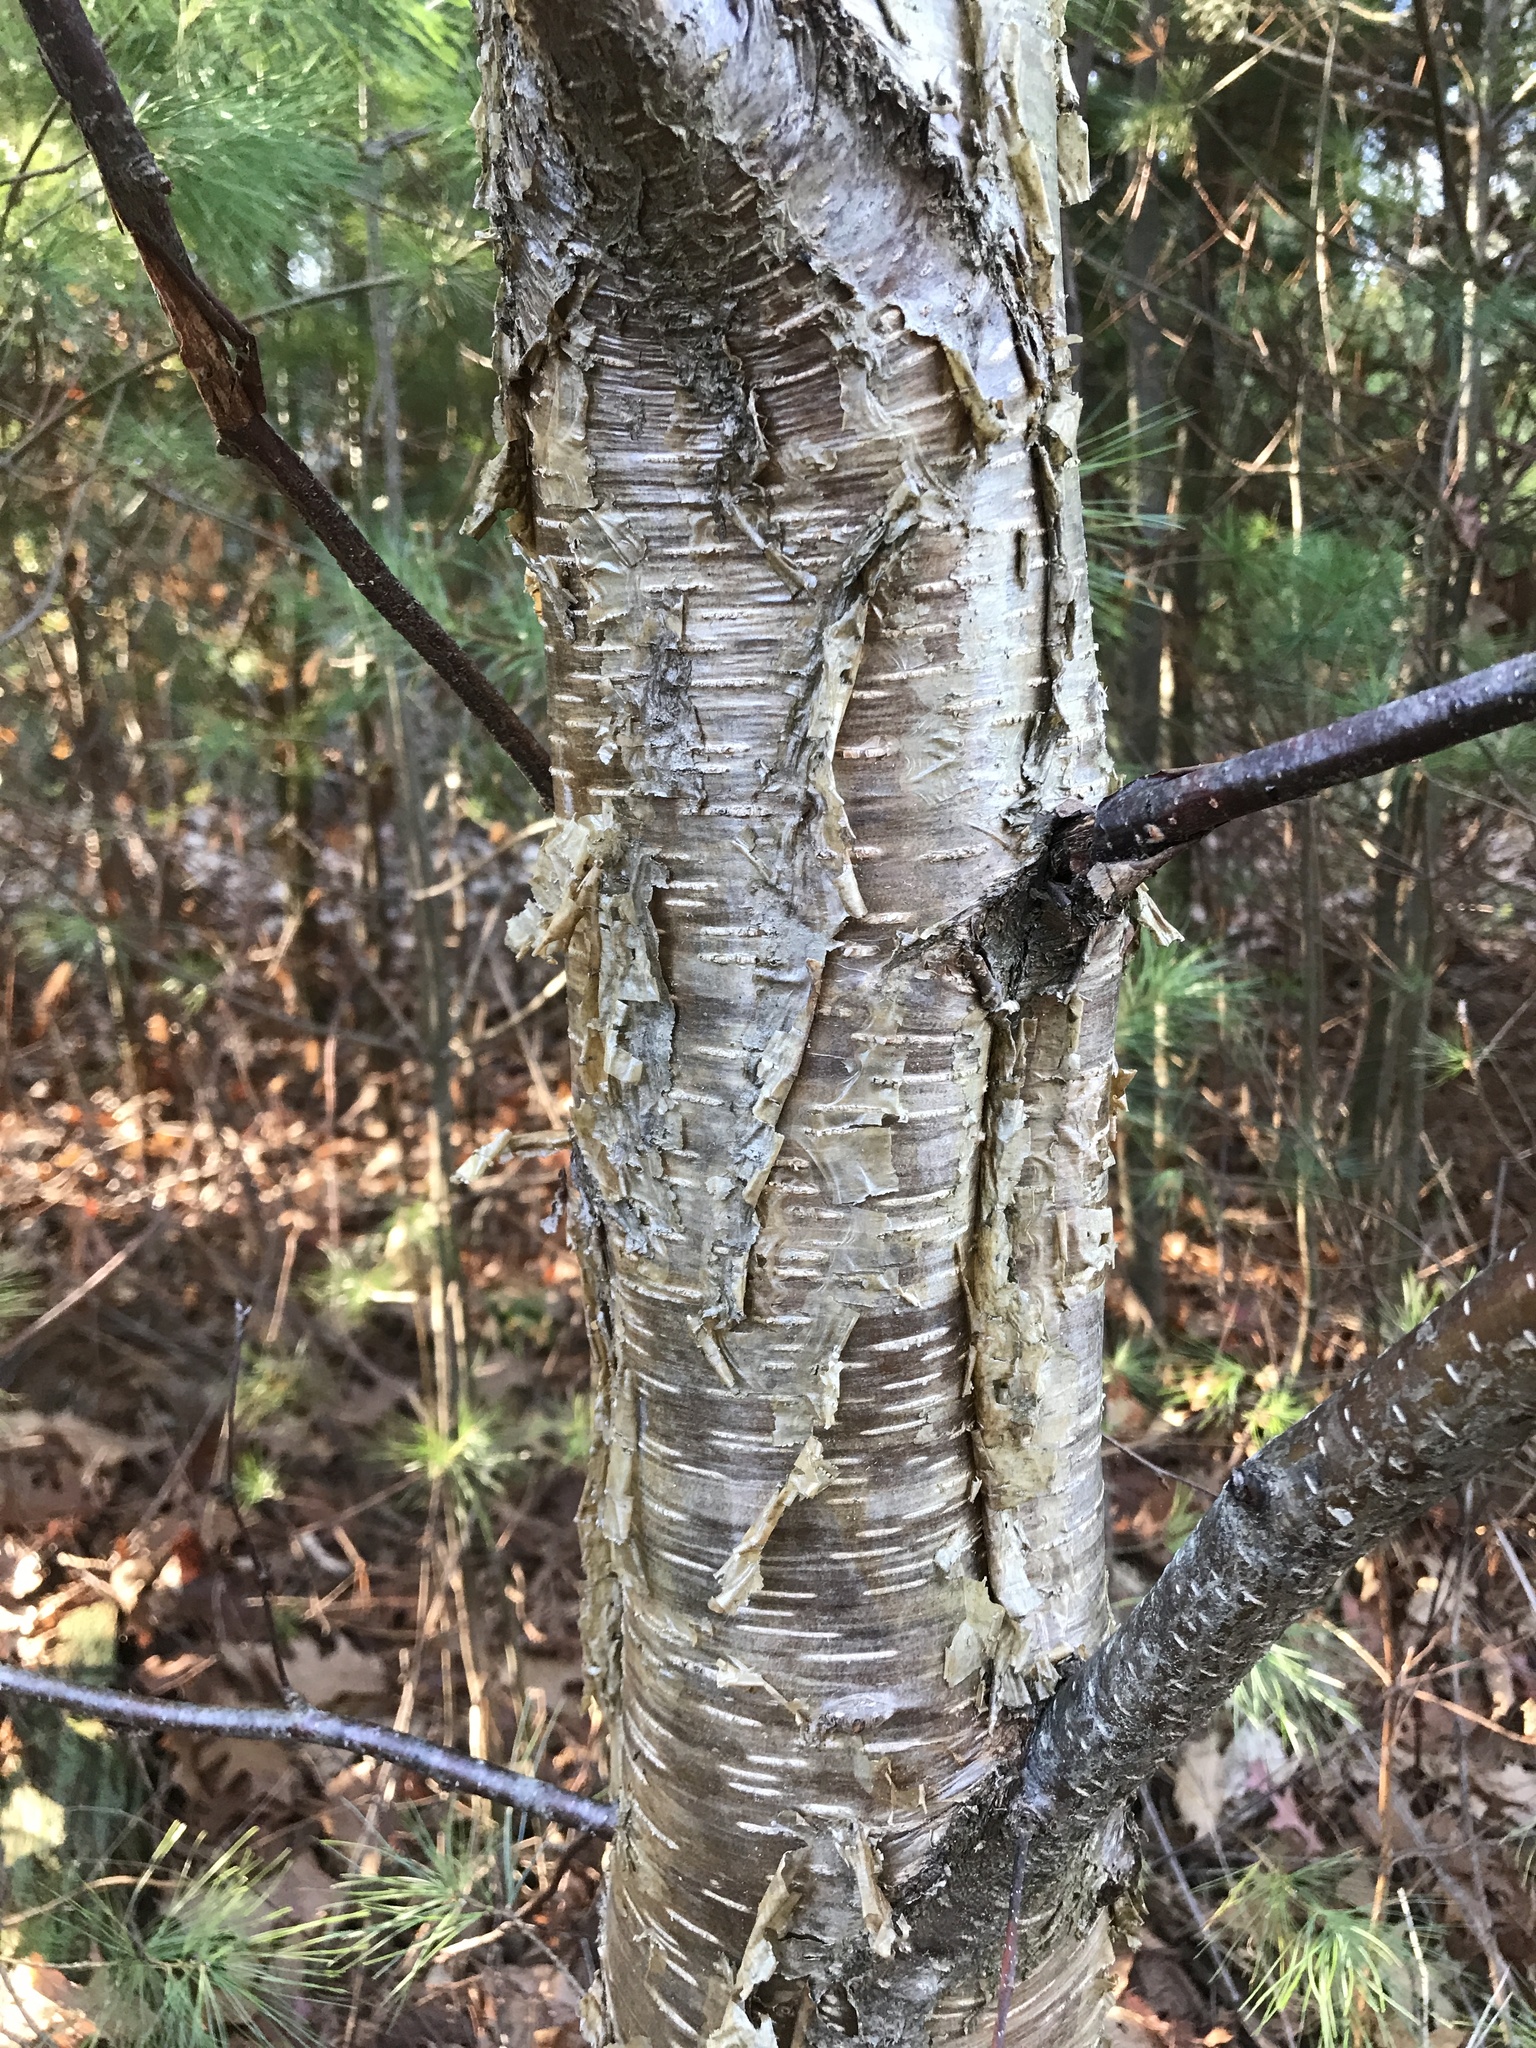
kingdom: Plantae
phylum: Tracheophyta
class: Magnoliopsida
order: Fagales
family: Betulaceae
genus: Betula
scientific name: Betula alleghaniensis
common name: Yellow birch
